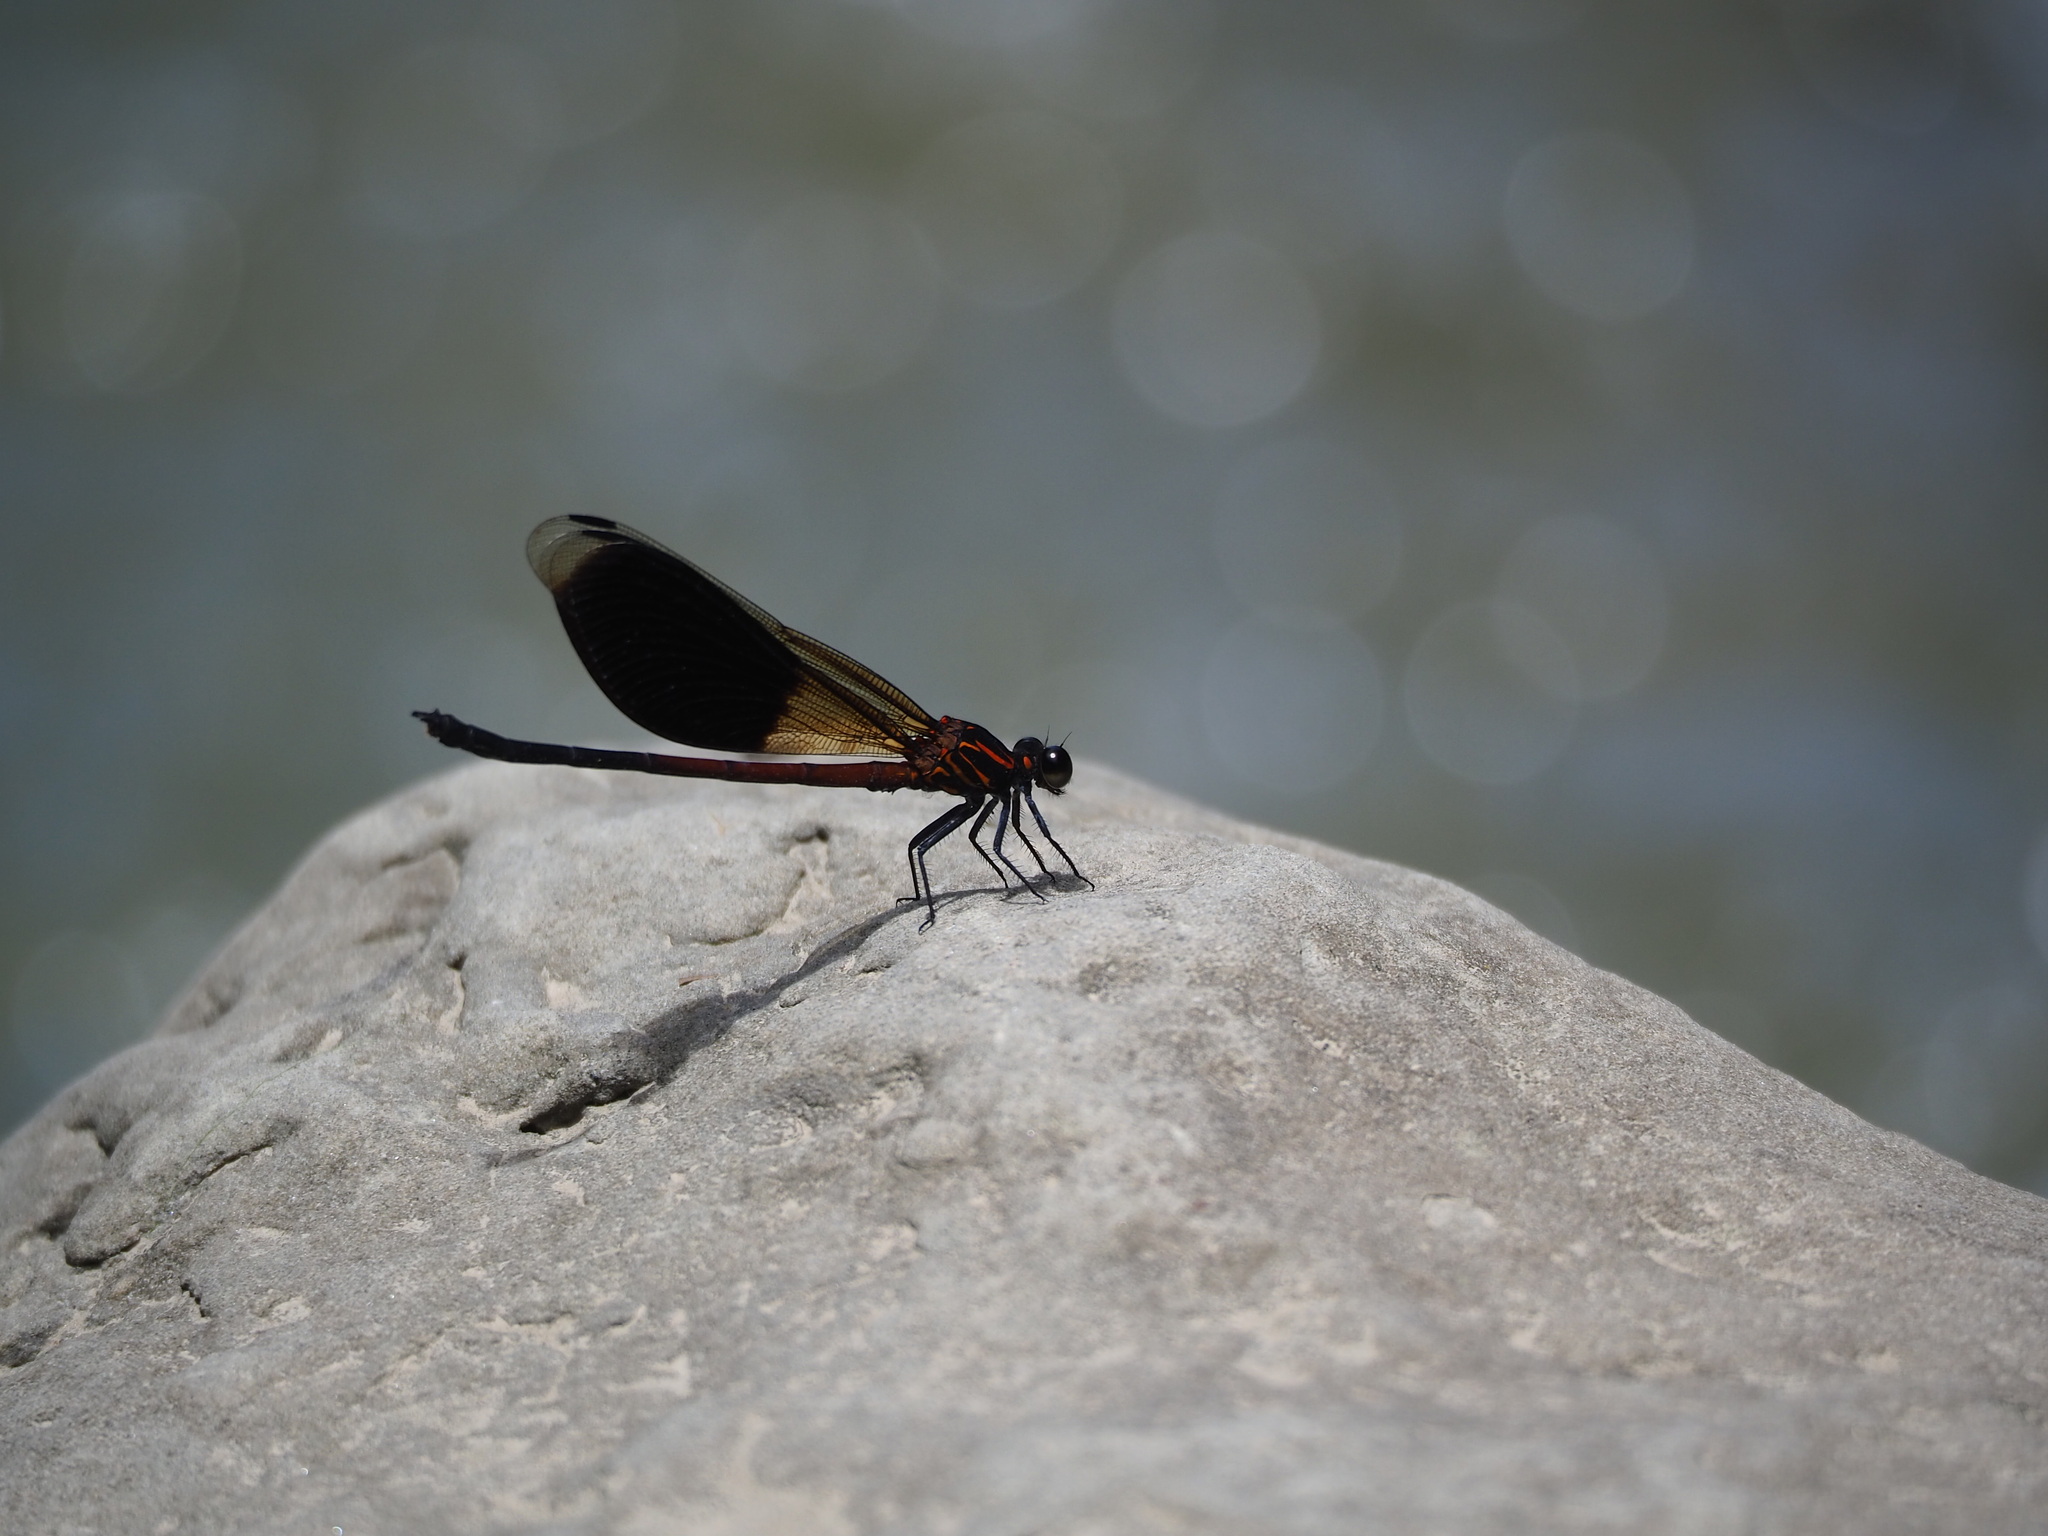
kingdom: Animalia
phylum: Arthropoda
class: Insecta
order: Odonata
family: Euphaeidae
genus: Euphaea
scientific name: Euphaea formosa
